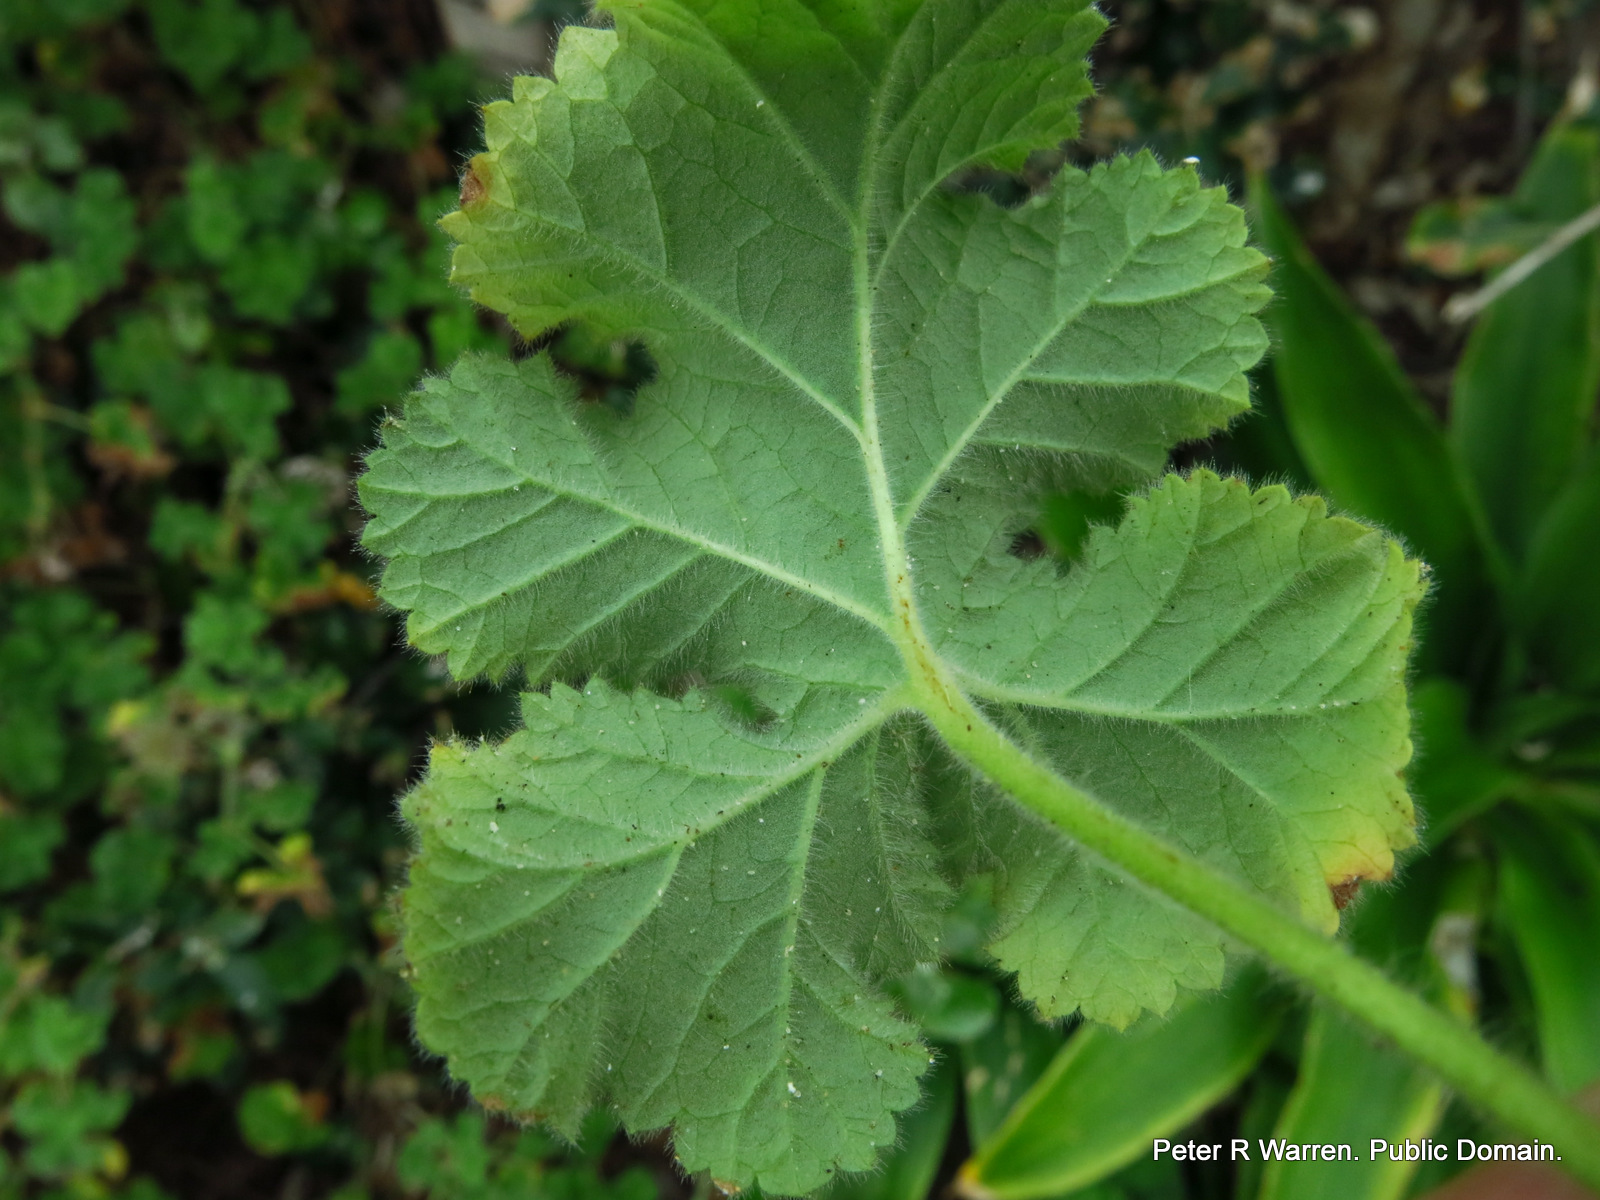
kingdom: Plantae
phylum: Tracheophyta
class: Magnoliopsida
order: Geraniales
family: Geraniaceae
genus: Pelargonium
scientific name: Pelargonium capitatum
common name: Rose scented geranium
